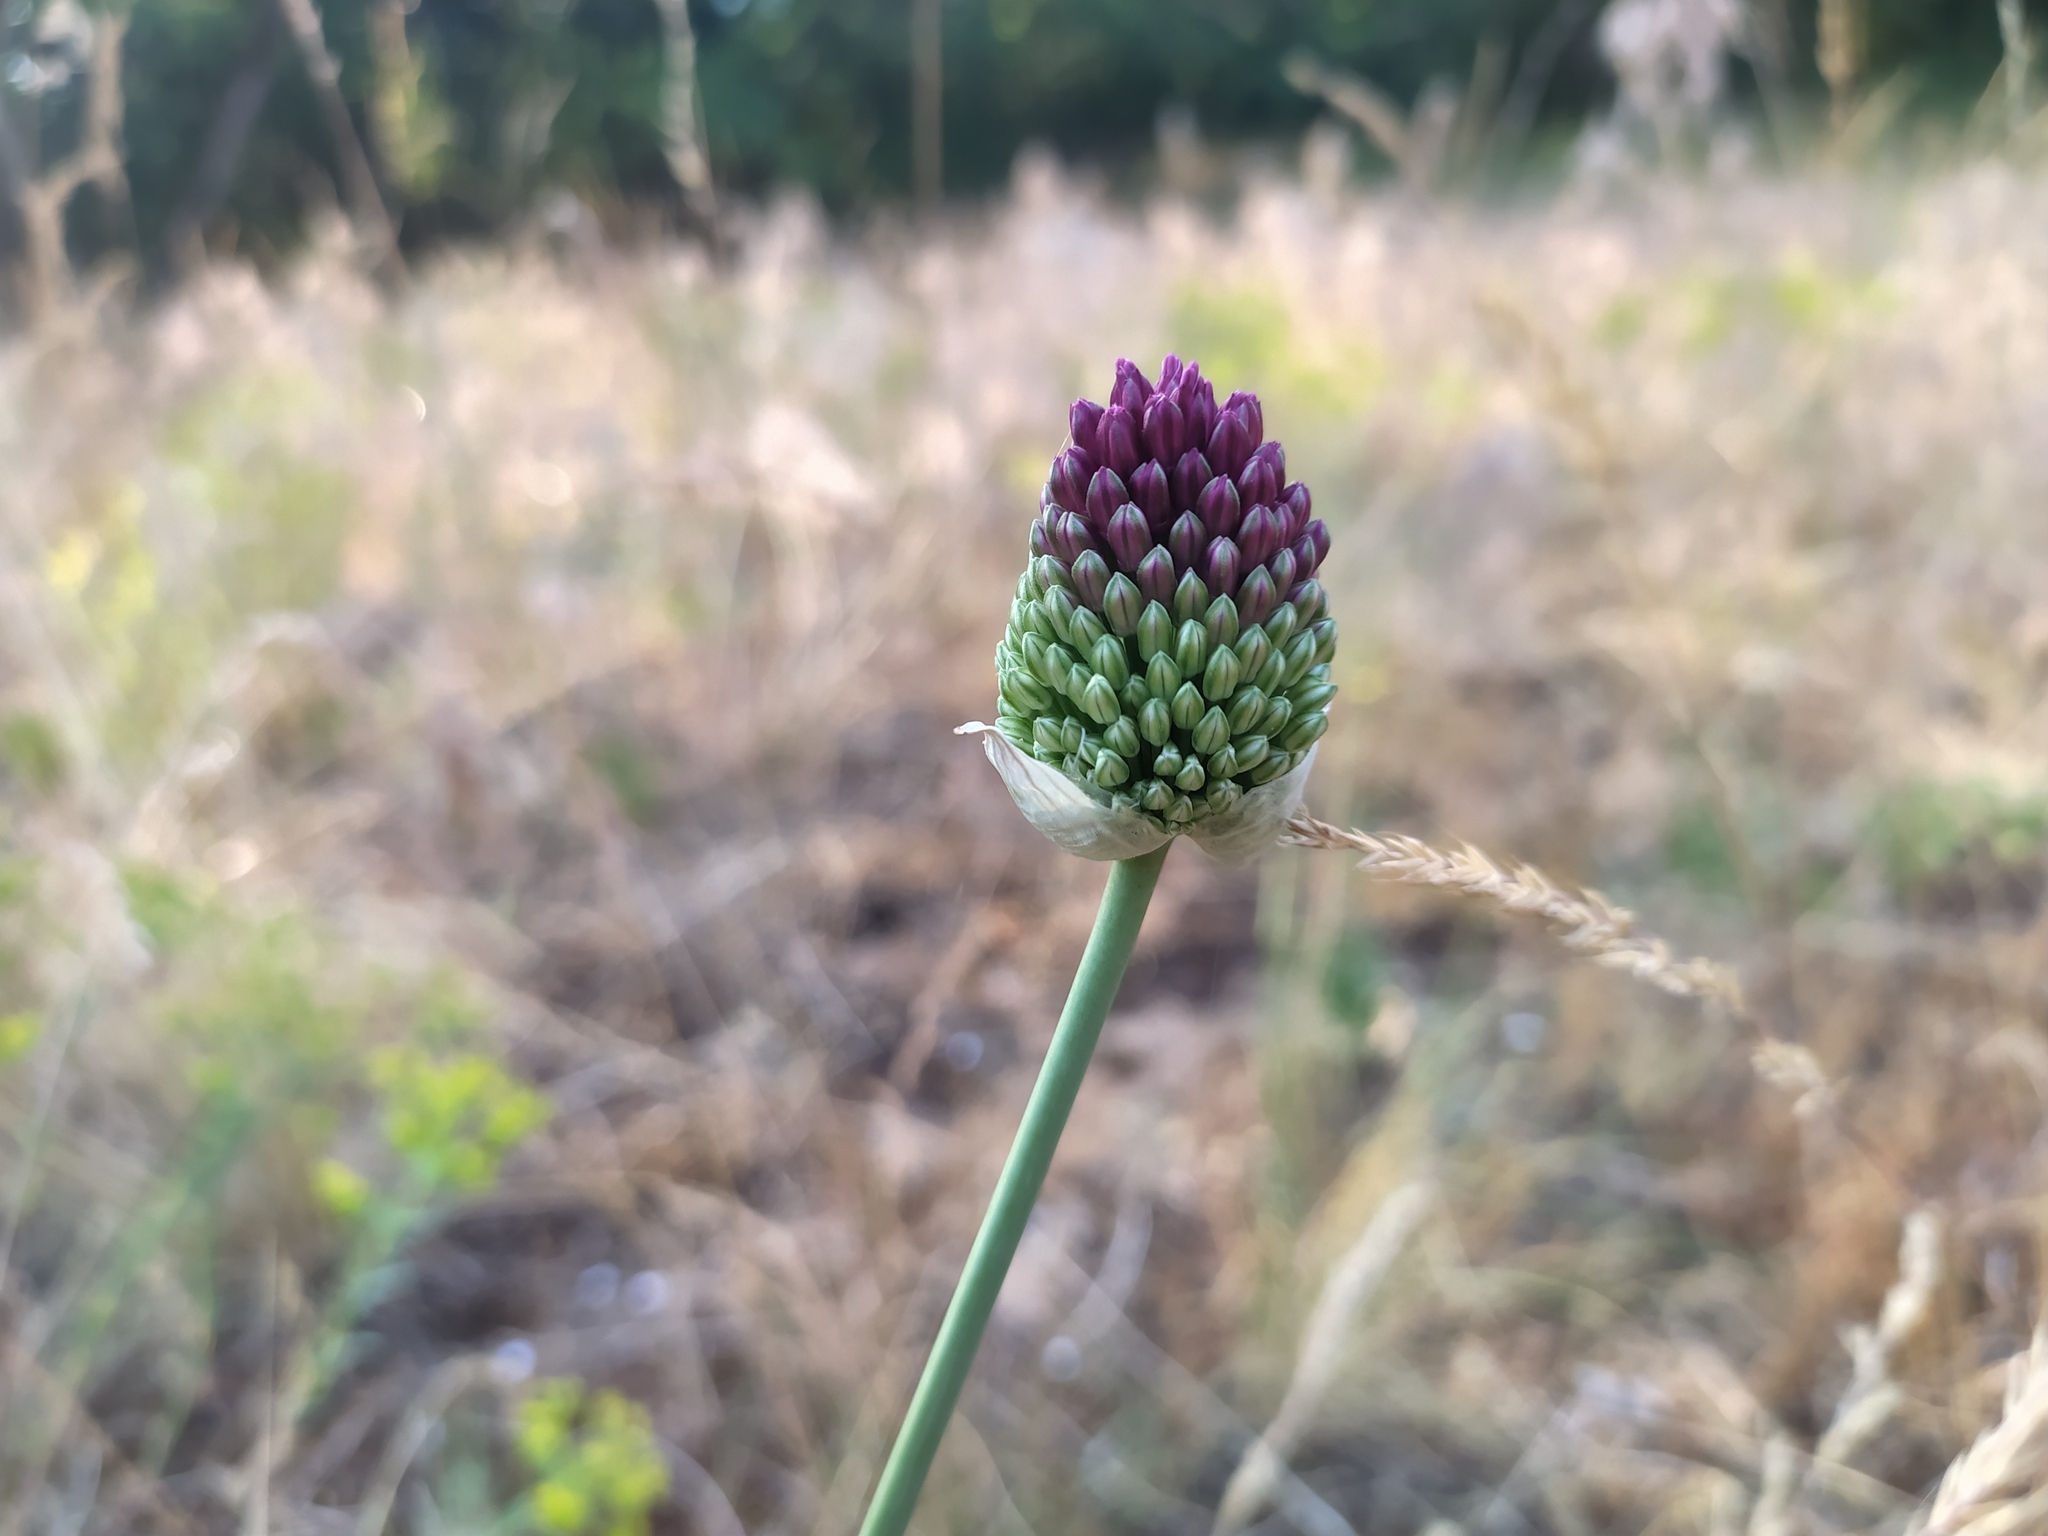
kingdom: Plantae
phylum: Tracheophyta
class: Liliopsida
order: Asparagales
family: Amaryllidaceae
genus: Allium
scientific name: Allium sphaerocephalon
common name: Round-headed leek
